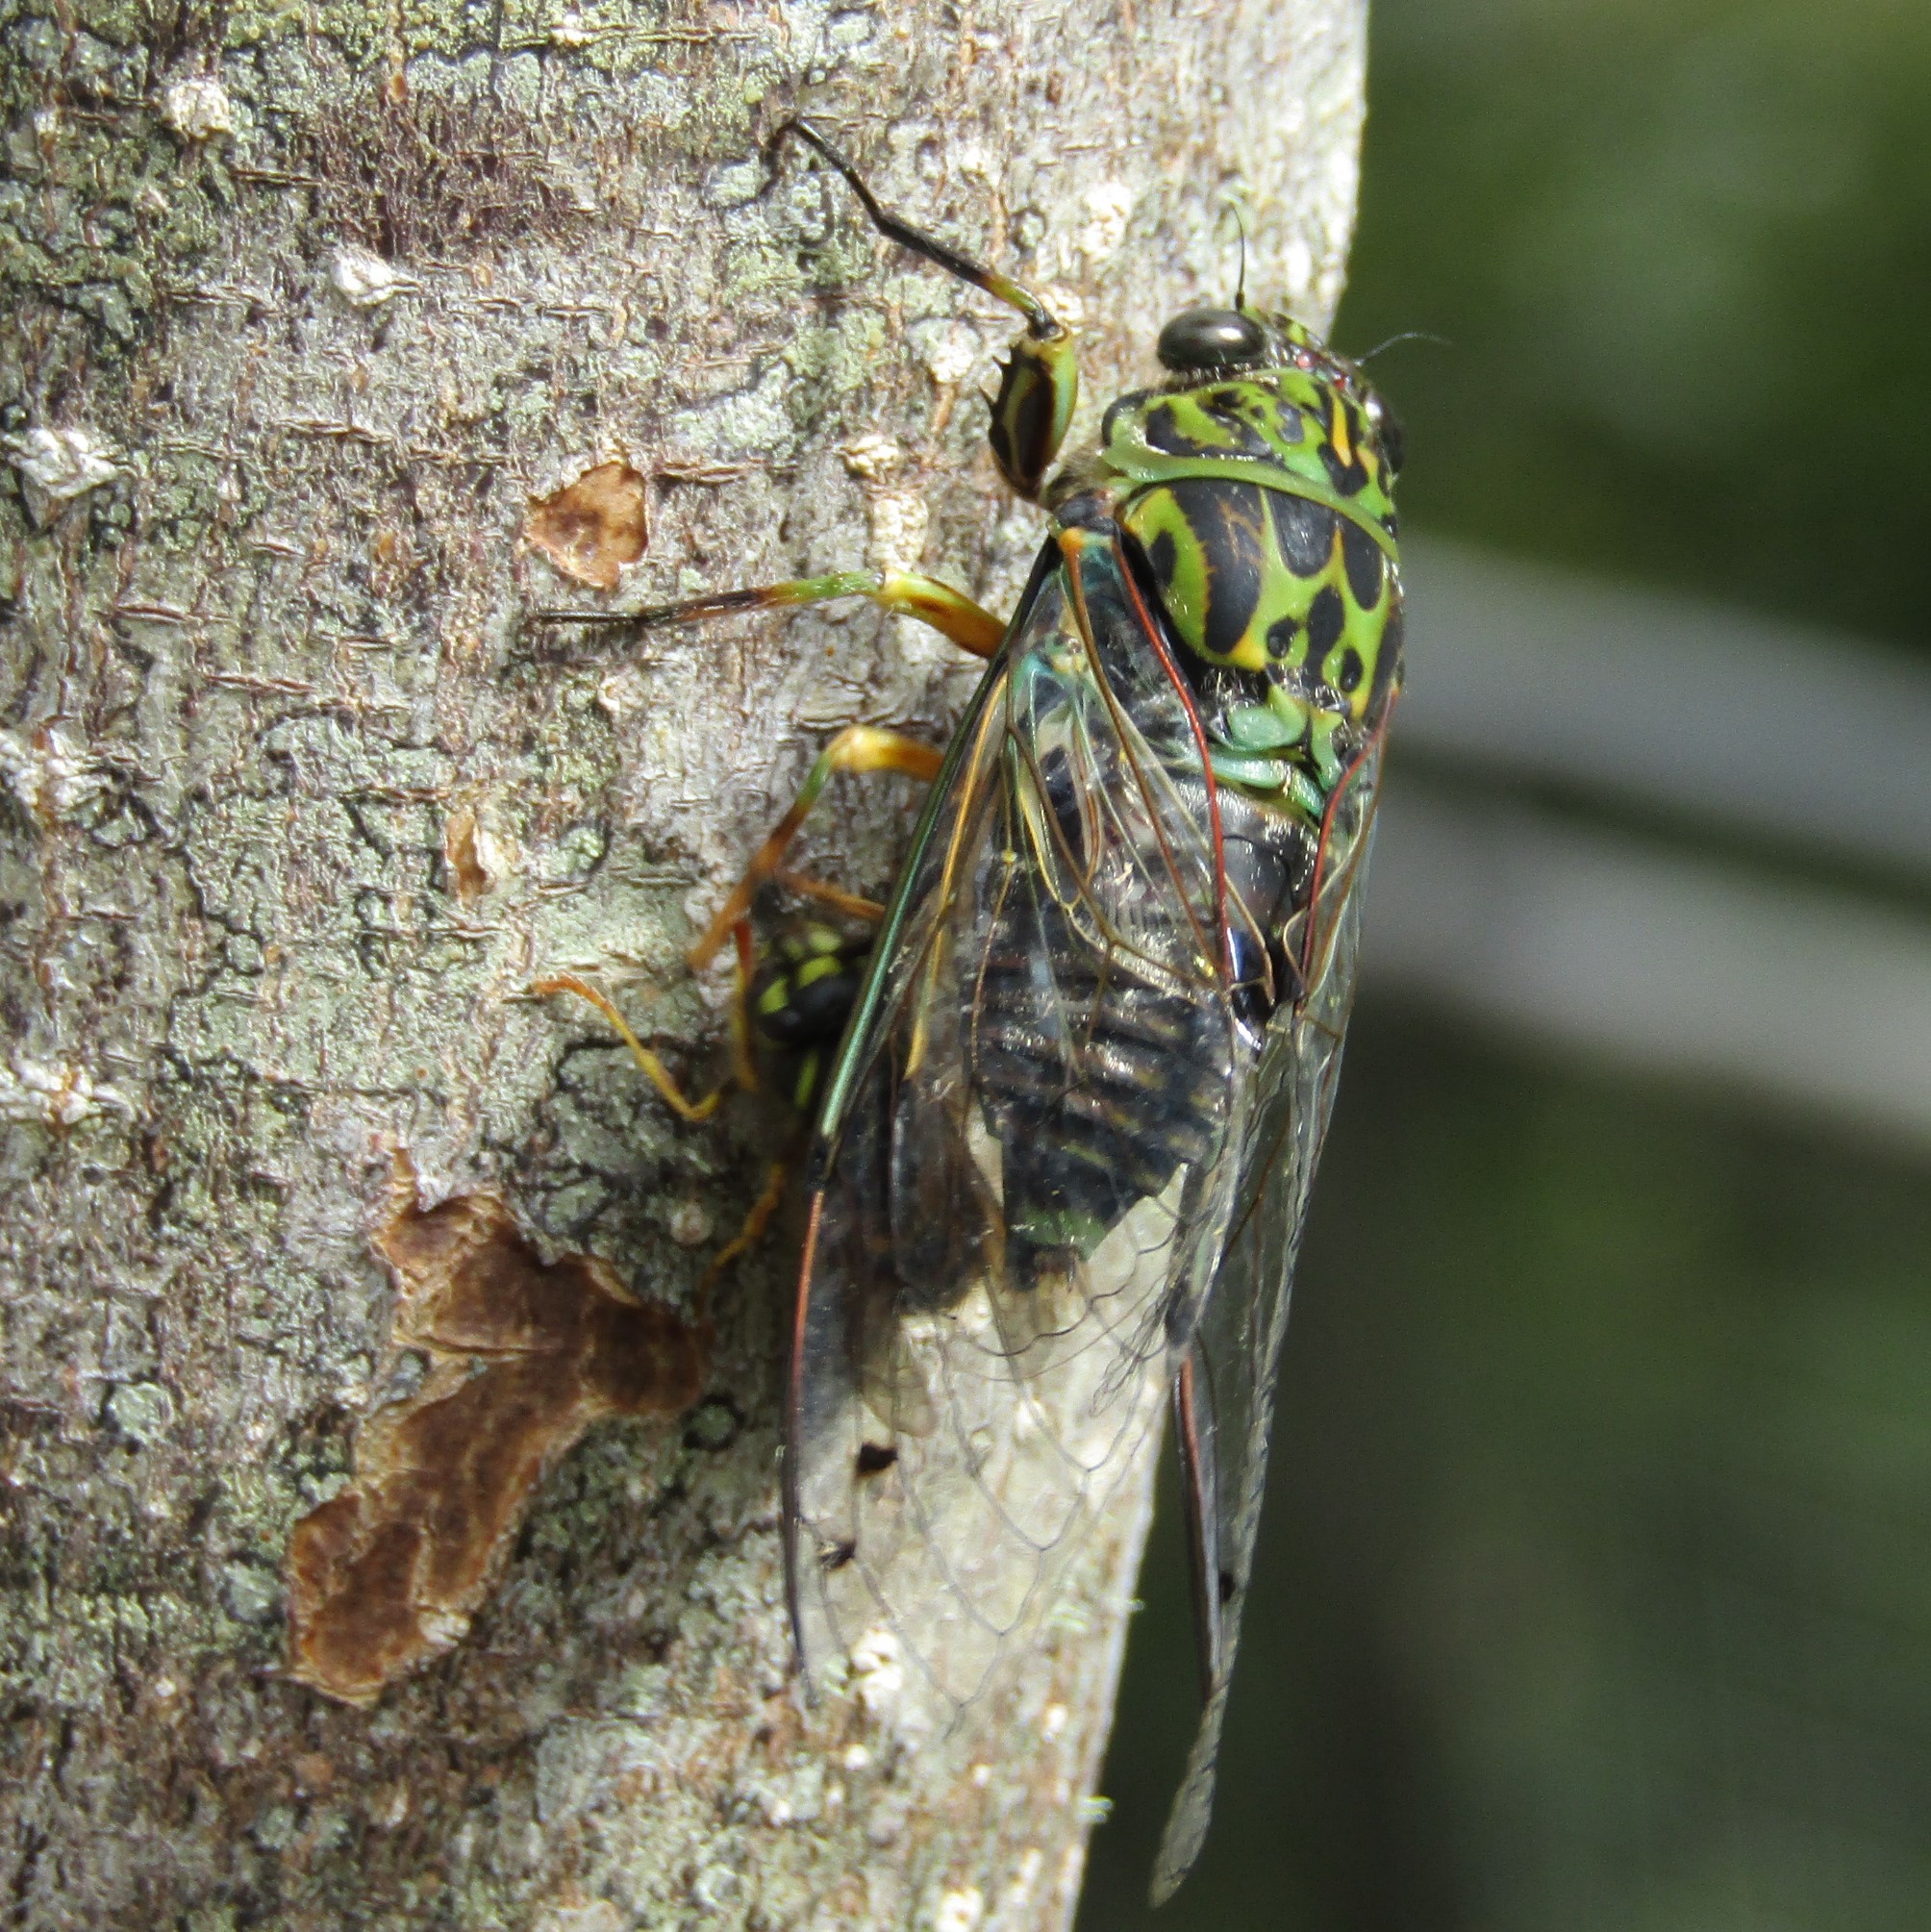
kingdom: Animalia
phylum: Arthropoda
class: Insecta
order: Hemiptera
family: Cicadidae
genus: Amphipsalta
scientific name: Amphipsalta zelandica
